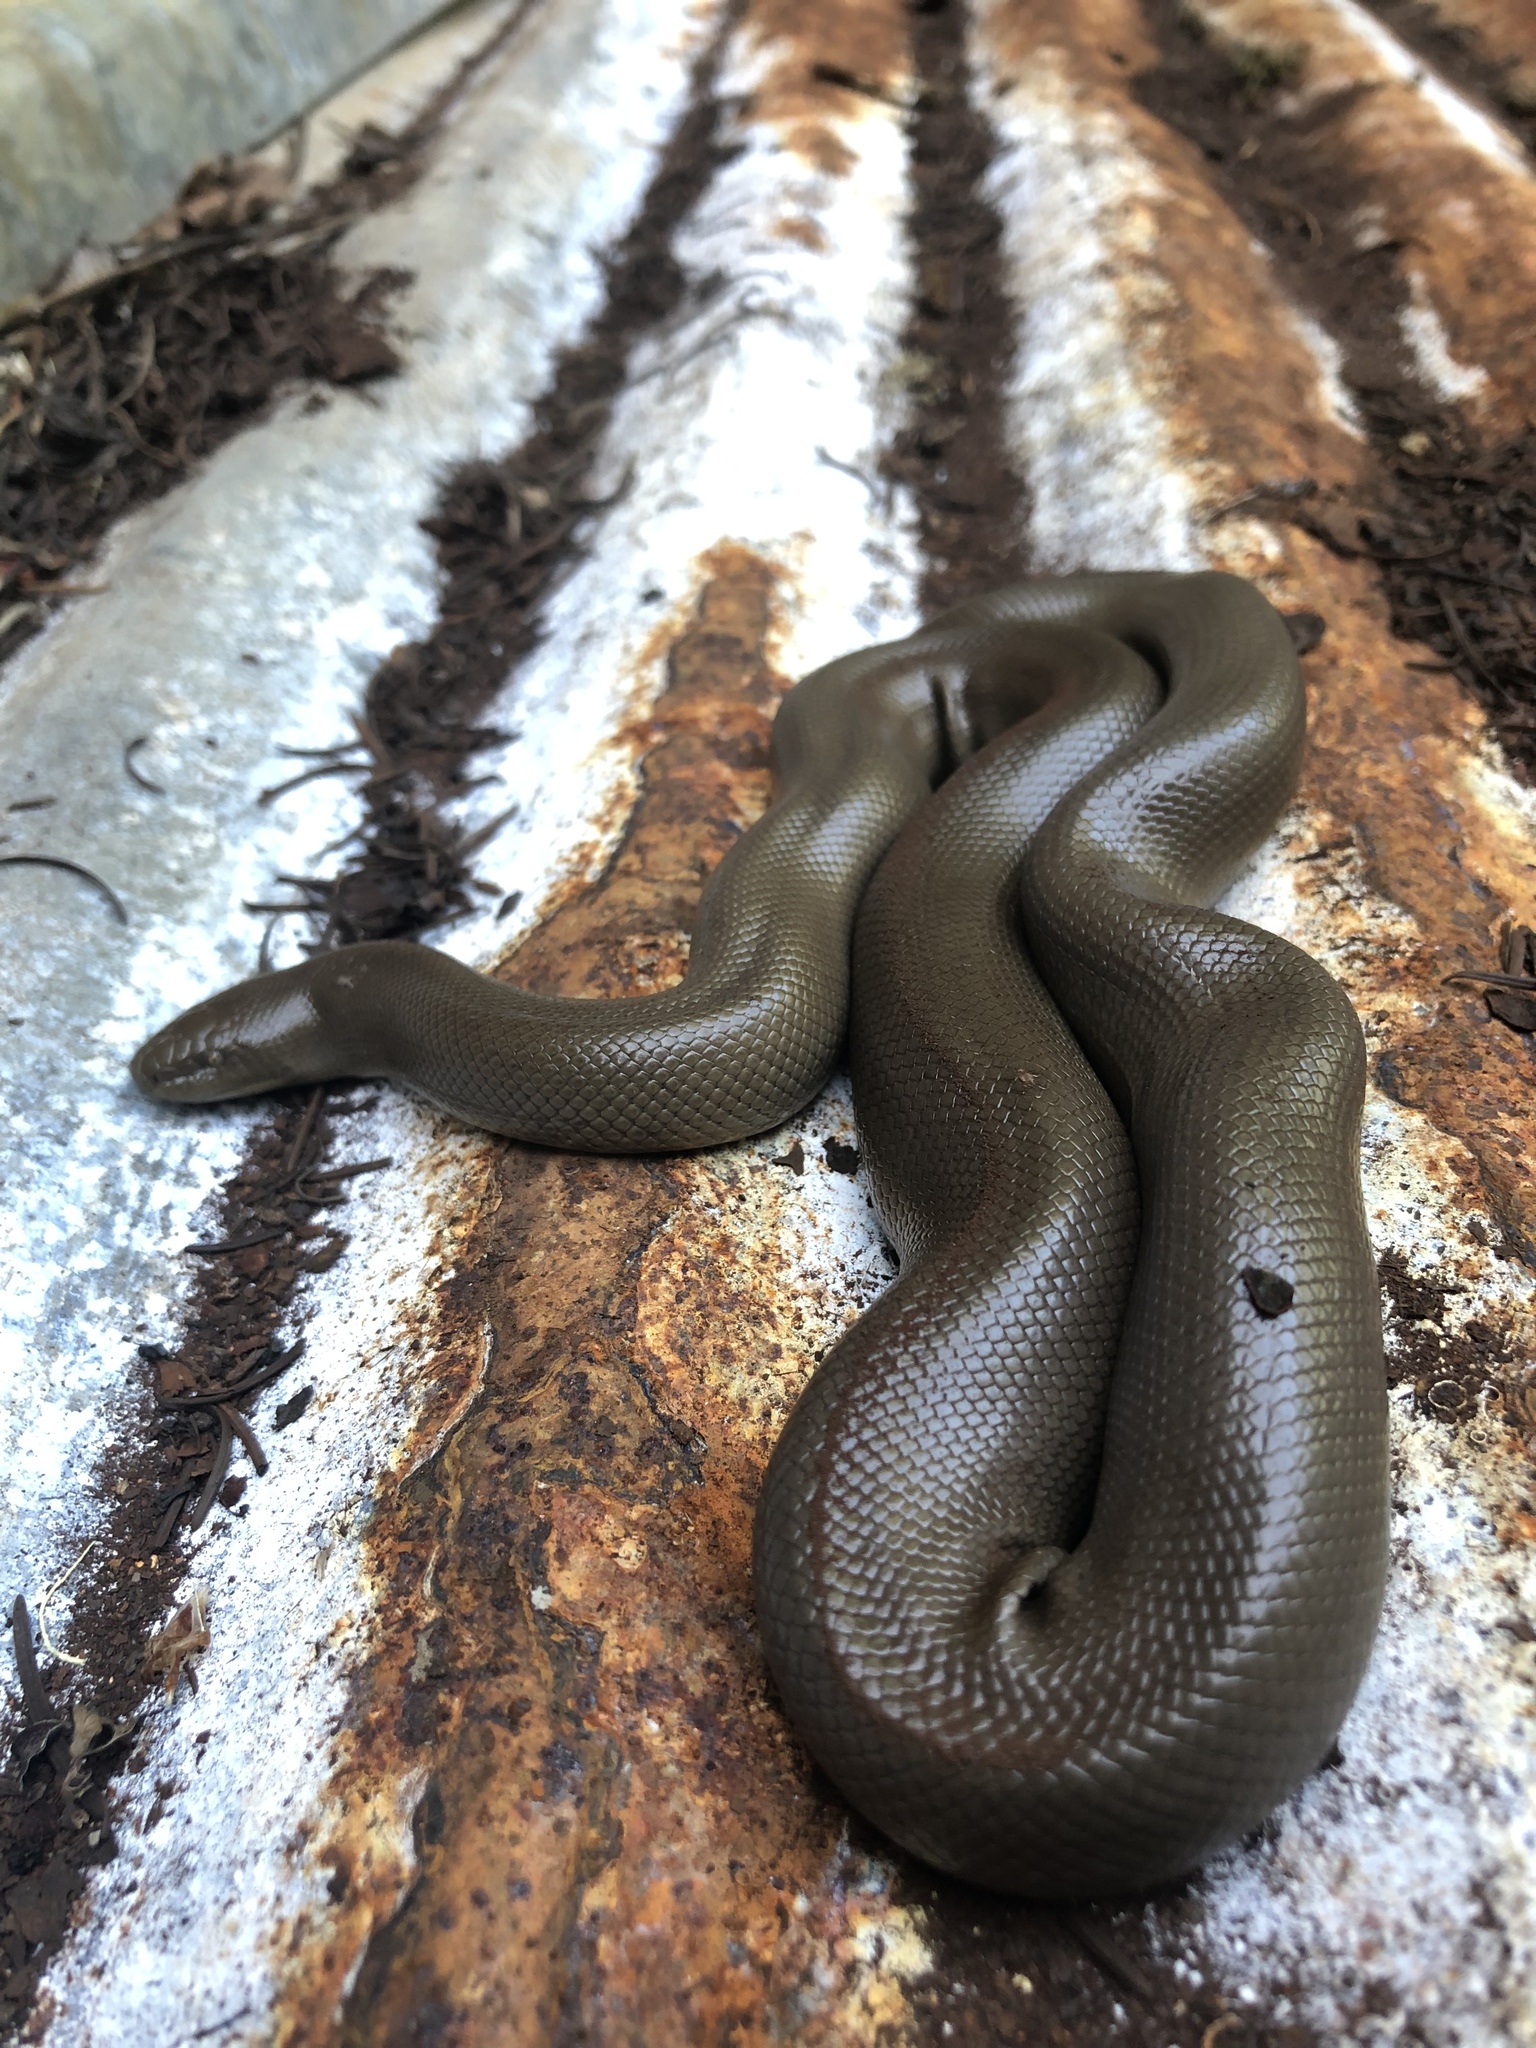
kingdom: Animalia
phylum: Chordata
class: Squamata
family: Boidae
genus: Charina
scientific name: Charina bottae
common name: Northern rubber boa
